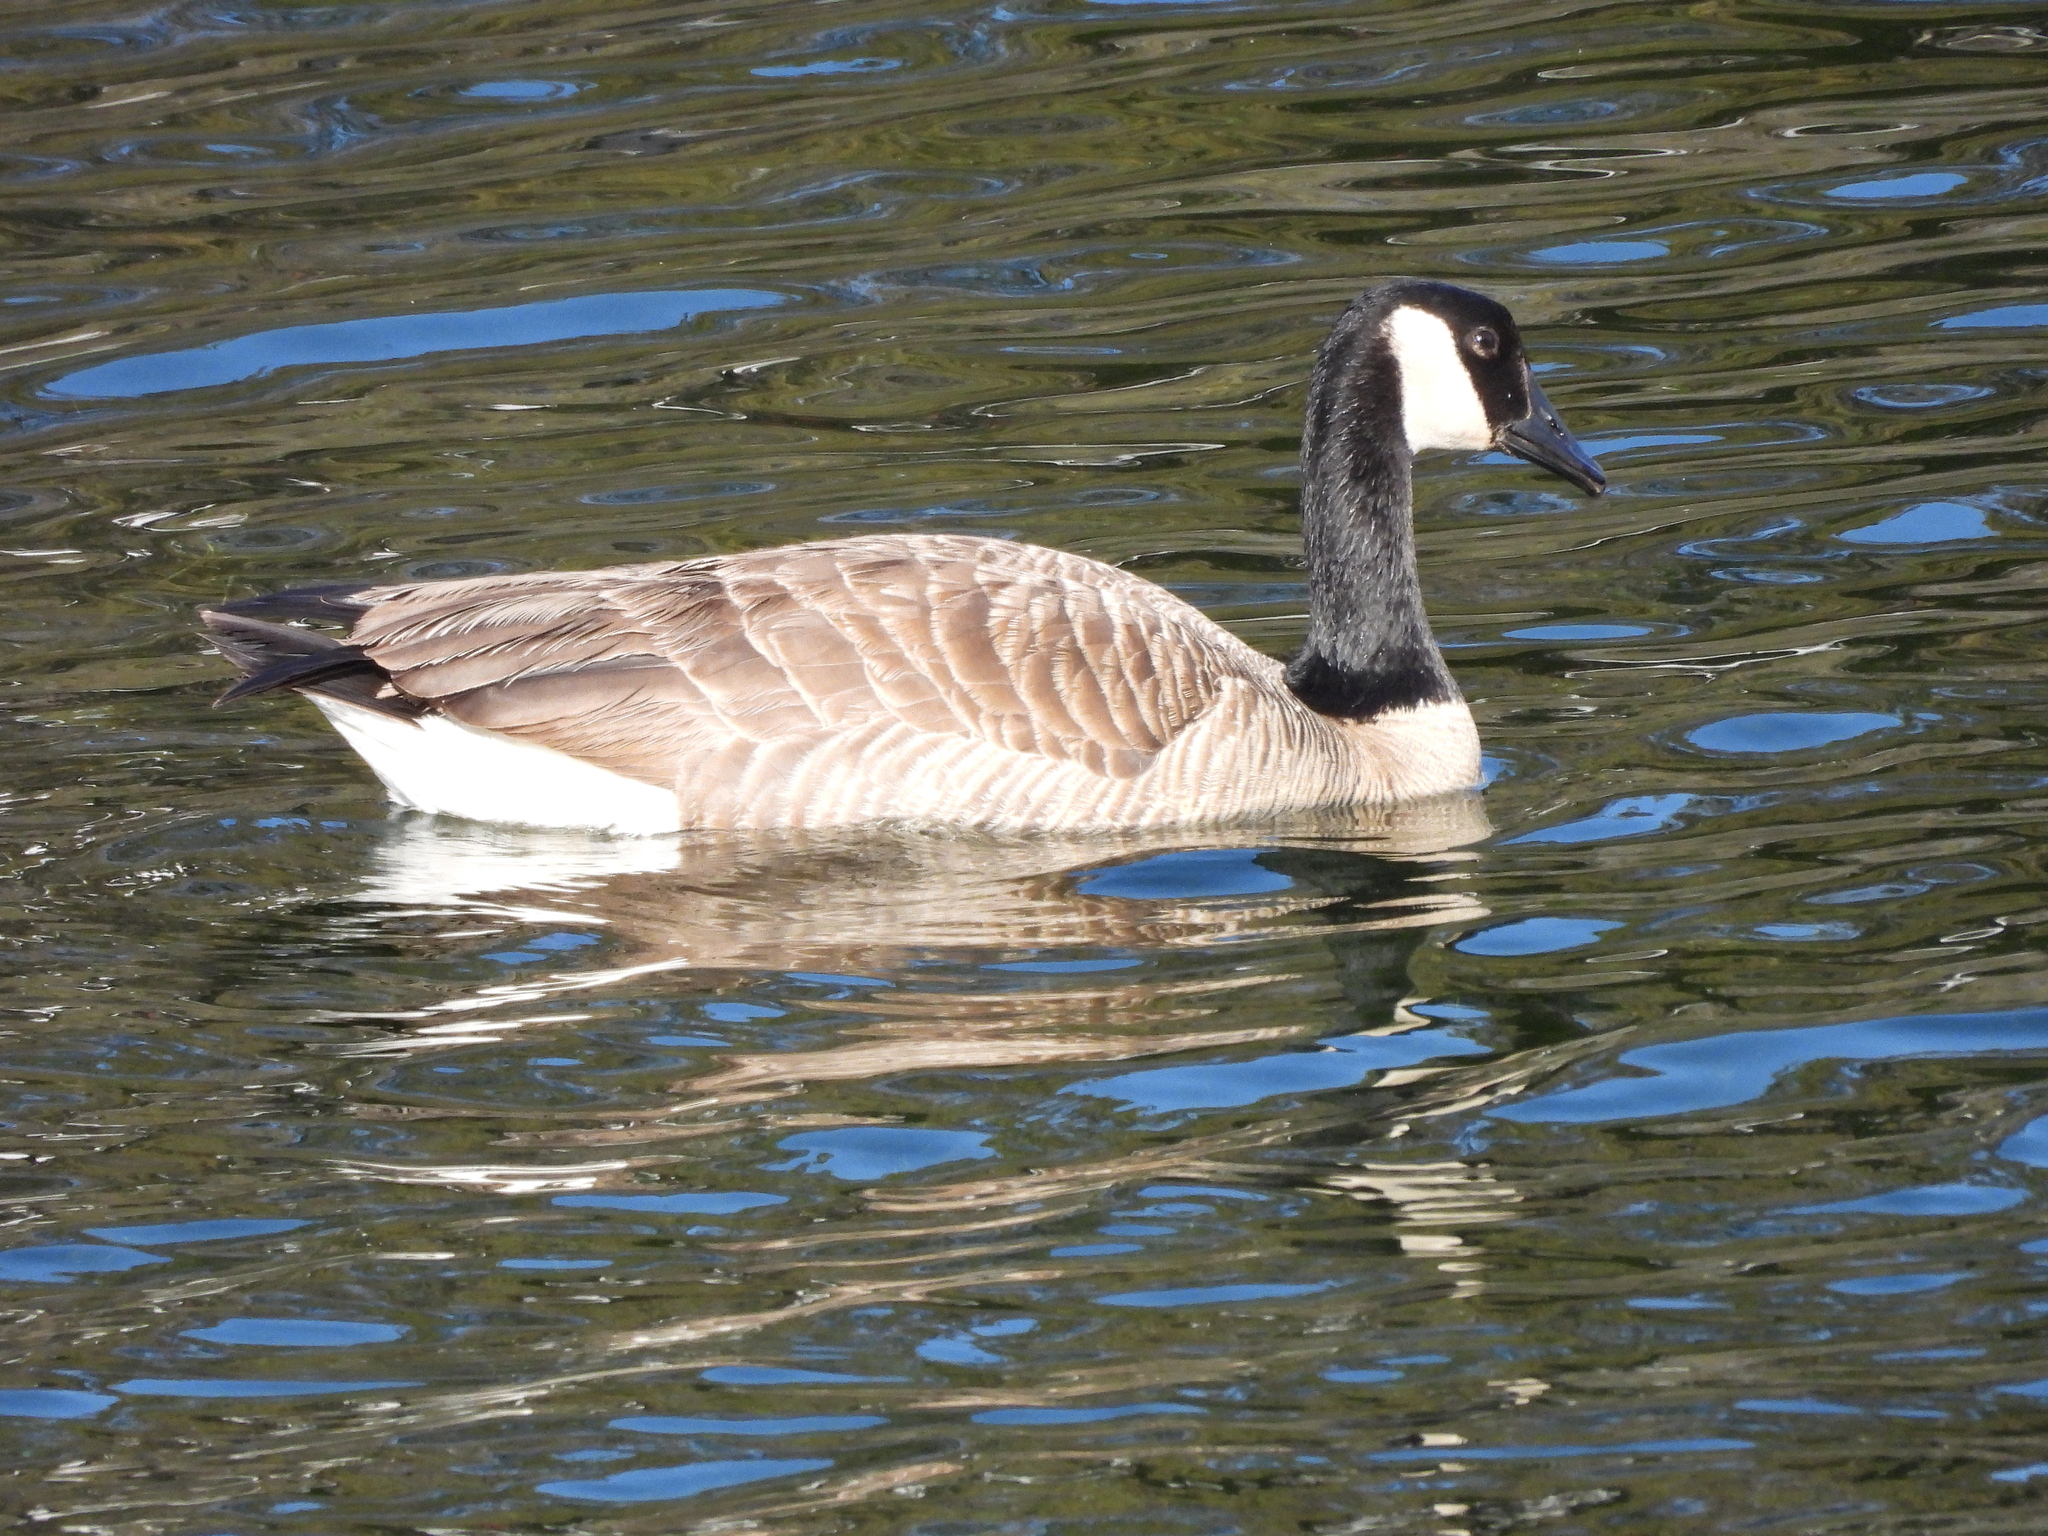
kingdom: Animalia
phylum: Chordata
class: Aves
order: Anseriformes
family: Anatidae
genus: Branta
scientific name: Branta canadensis
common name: Canada goose
